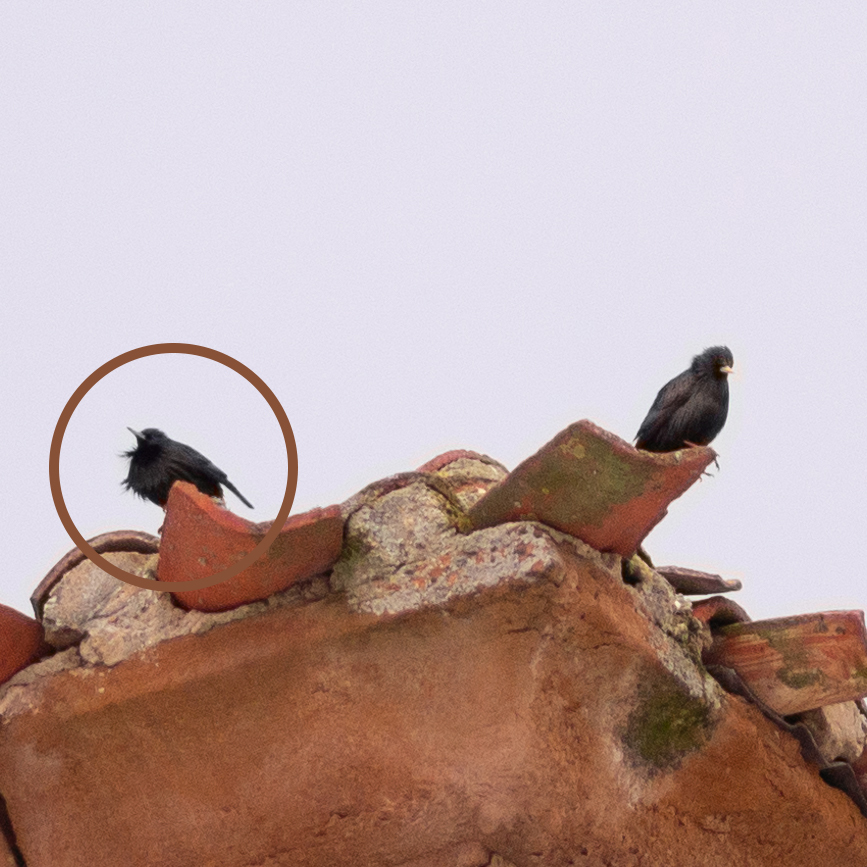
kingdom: Animalia
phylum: Chordata
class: Aves
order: Passeriformes
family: Sturnidae
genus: Sturnus
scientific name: Sturnus unicolor
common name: Spotless starling
